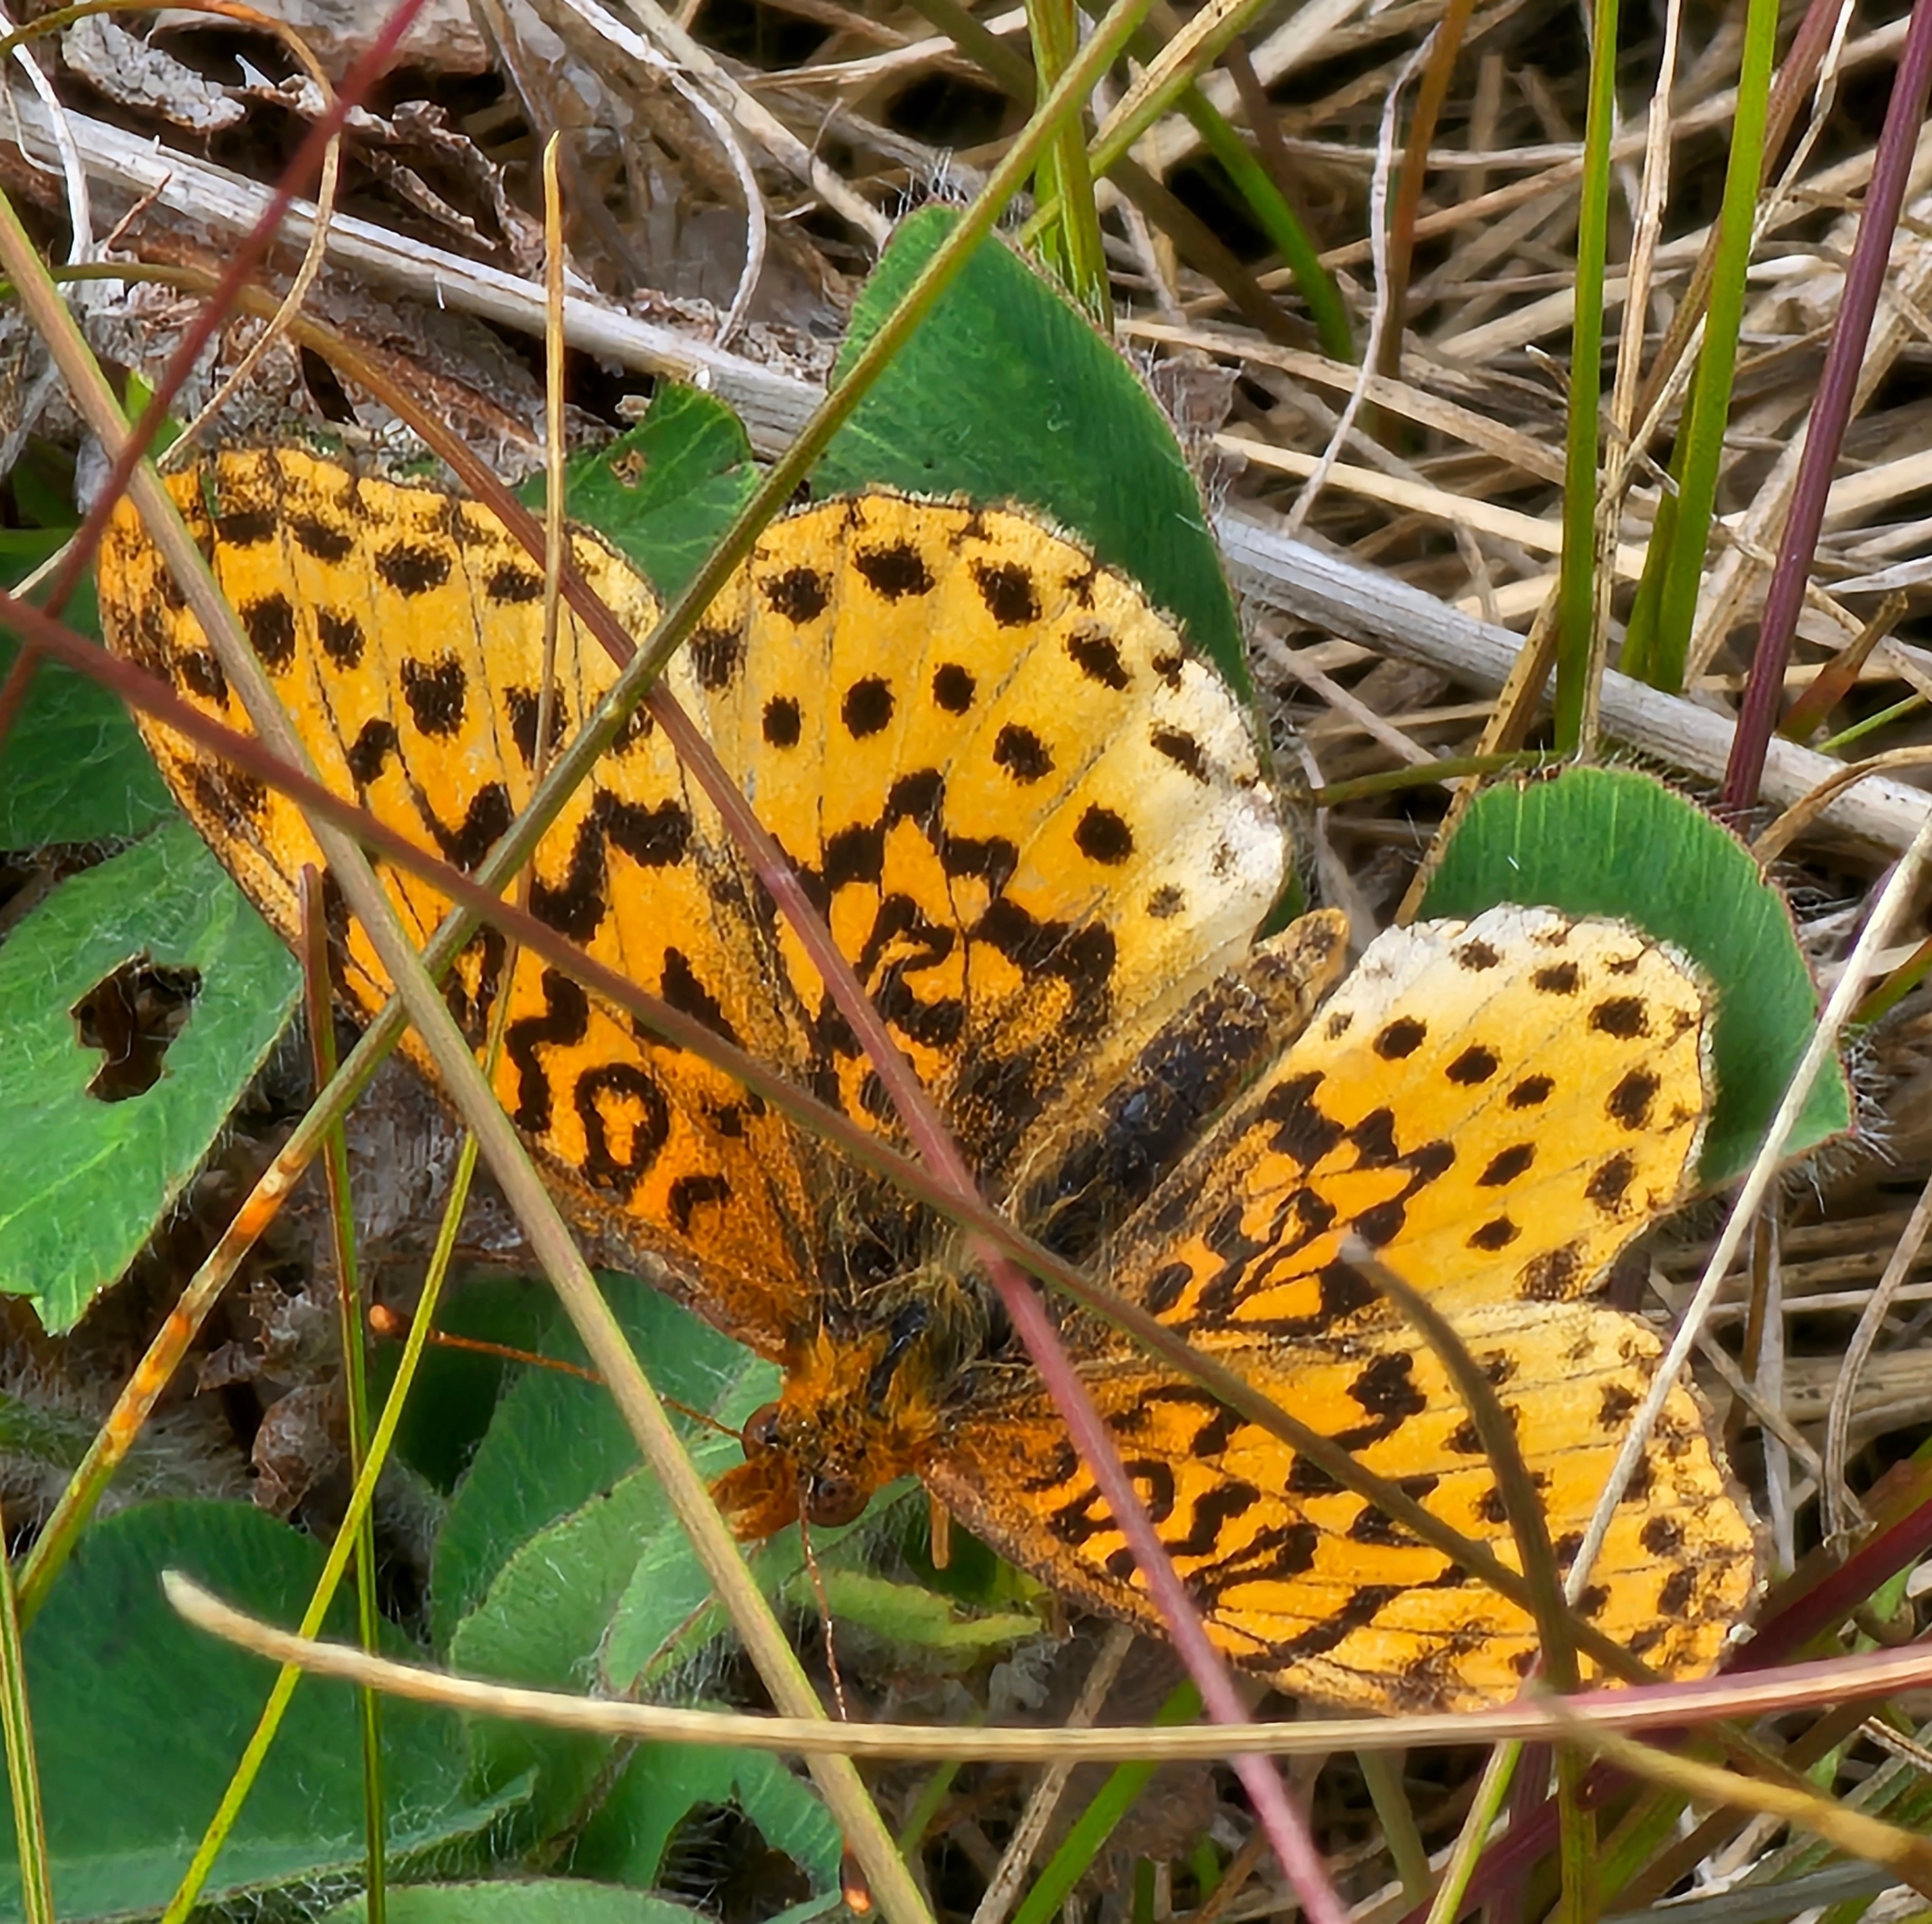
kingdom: Animalia
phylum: Arthropoda
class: Insecta
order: Lepidoptera
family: Nymphalidae
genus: Clossiana
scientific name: Clossiana toddi
